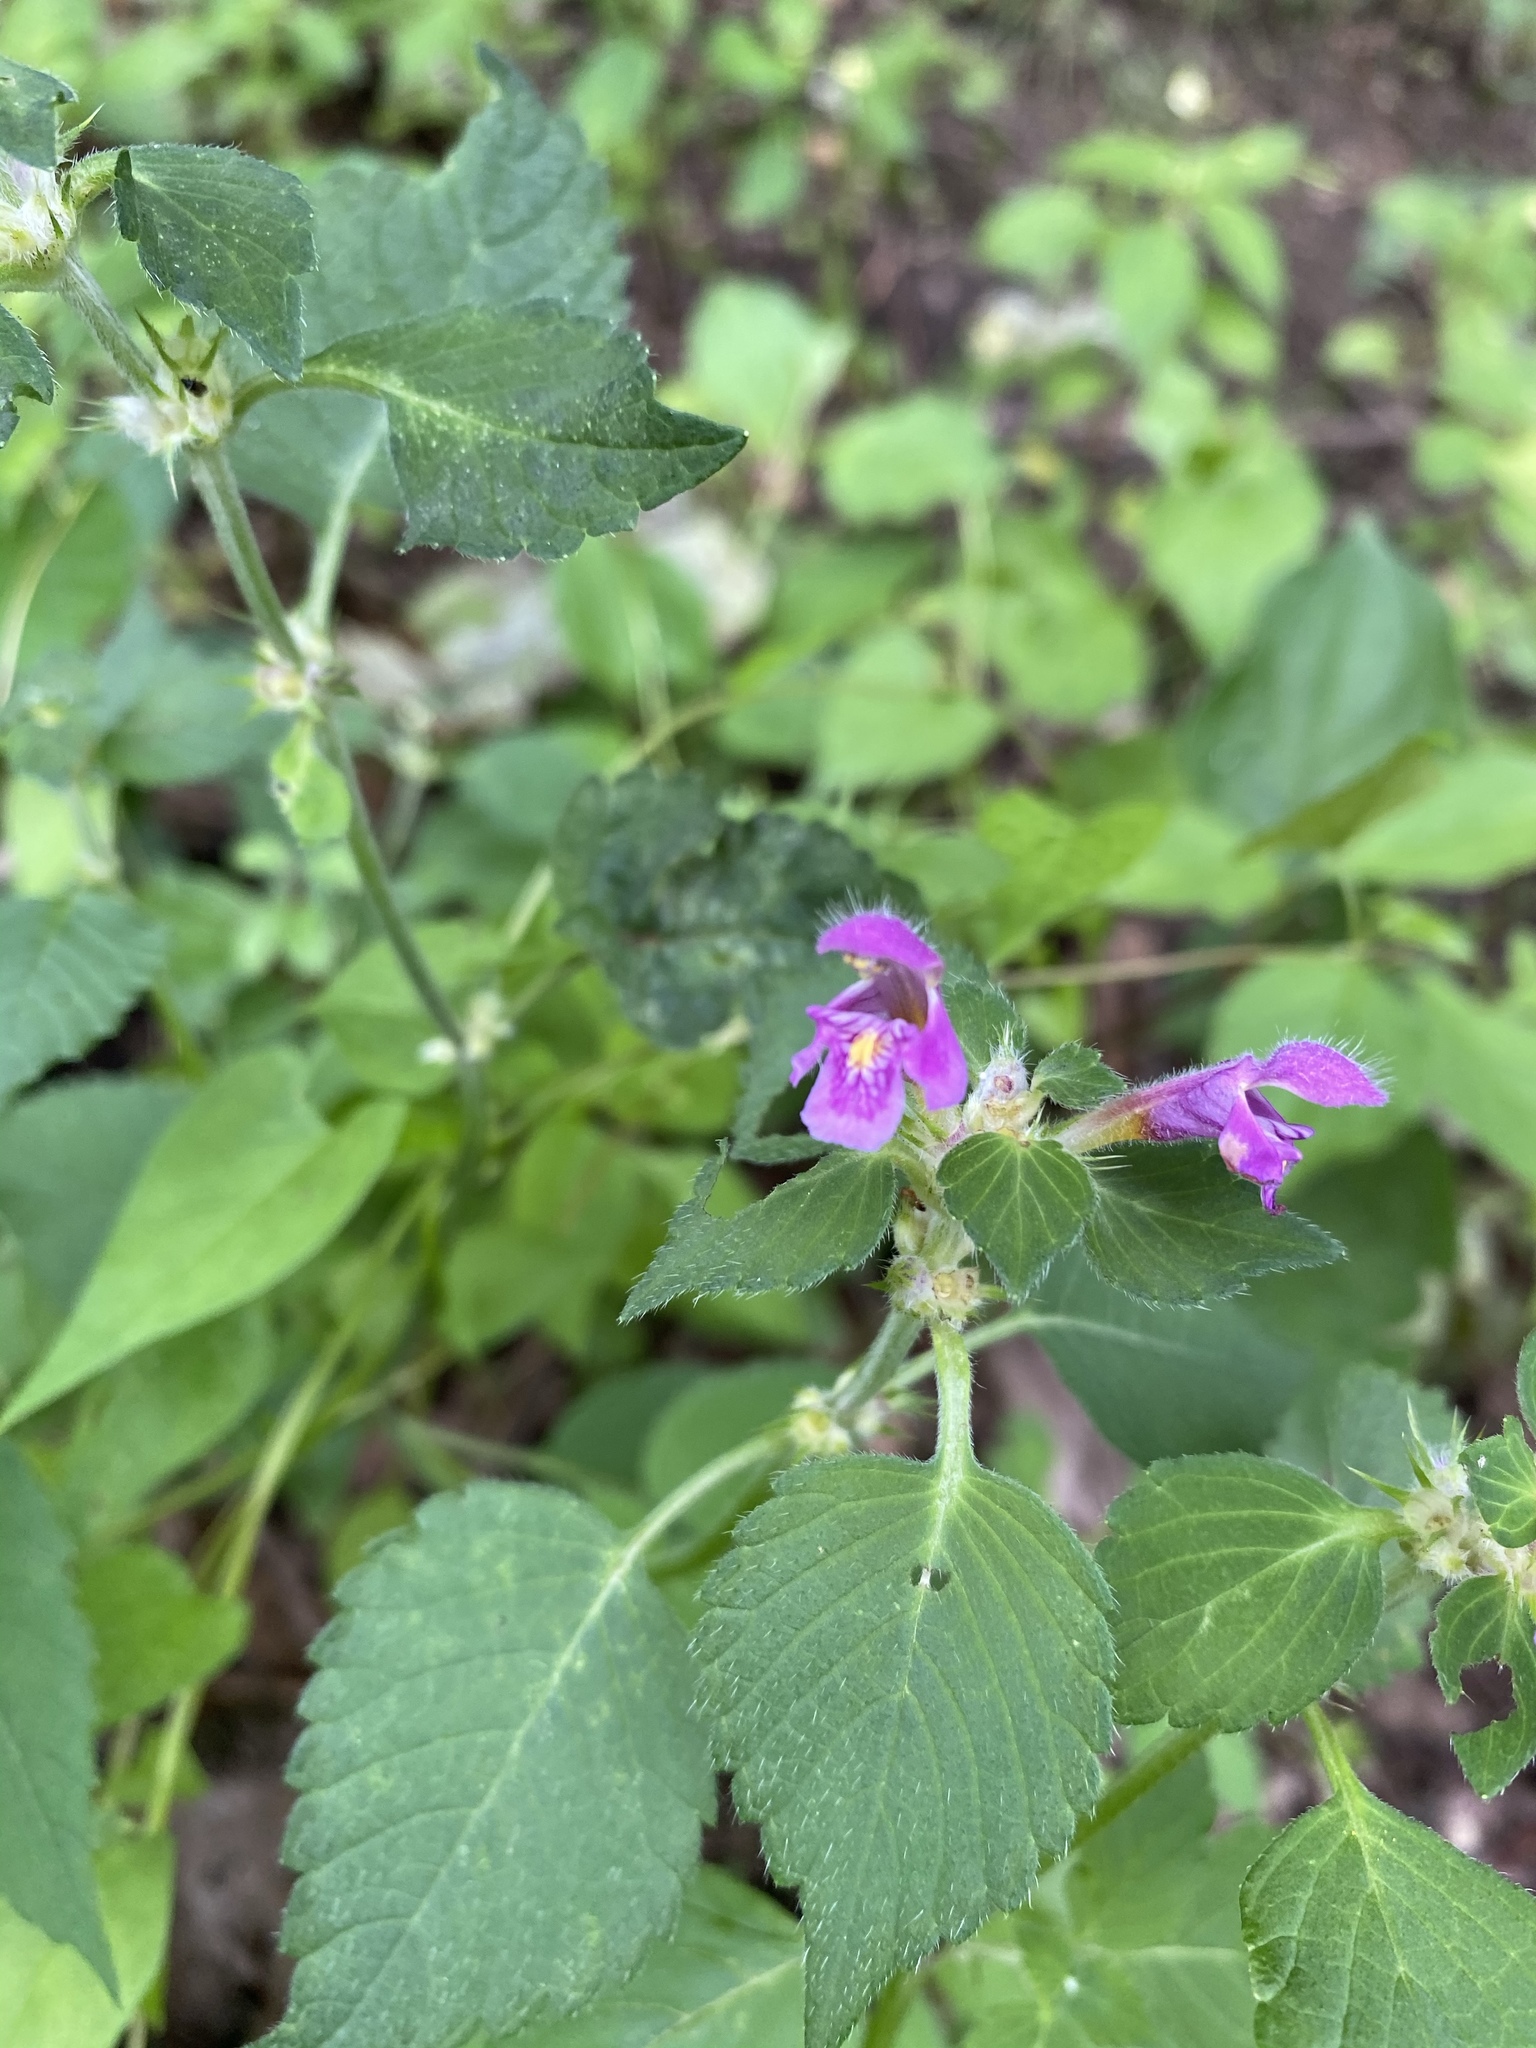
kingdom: Plantae
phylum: Tracheophyta
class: Magnoliopsida
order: Lamiales
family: Lamiaceae
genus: Galeopsis
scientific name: Galeopsis tetrahit
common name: Common hemp-nettle
